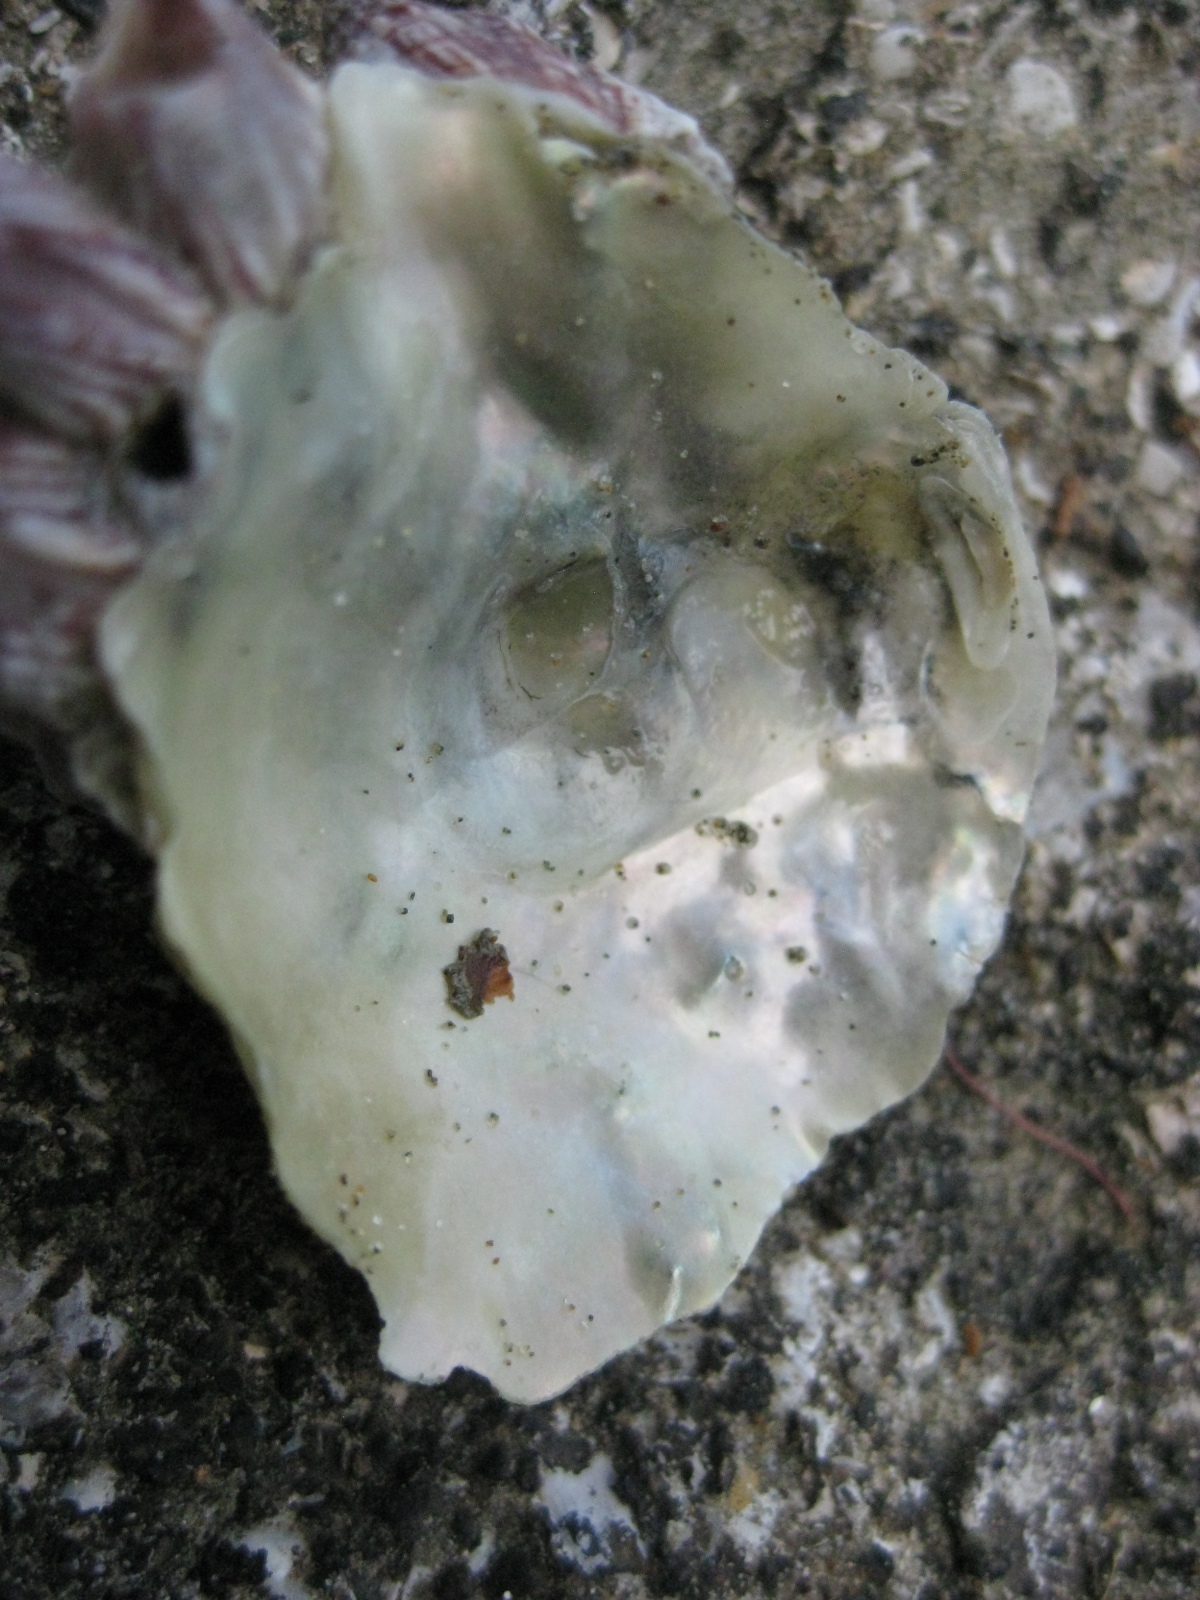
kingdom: Animalia
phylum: Mollusca
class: Bivalvia
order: Pectinida
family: Anomiidae
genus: Anomia
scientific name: Anomia trigonopsis
